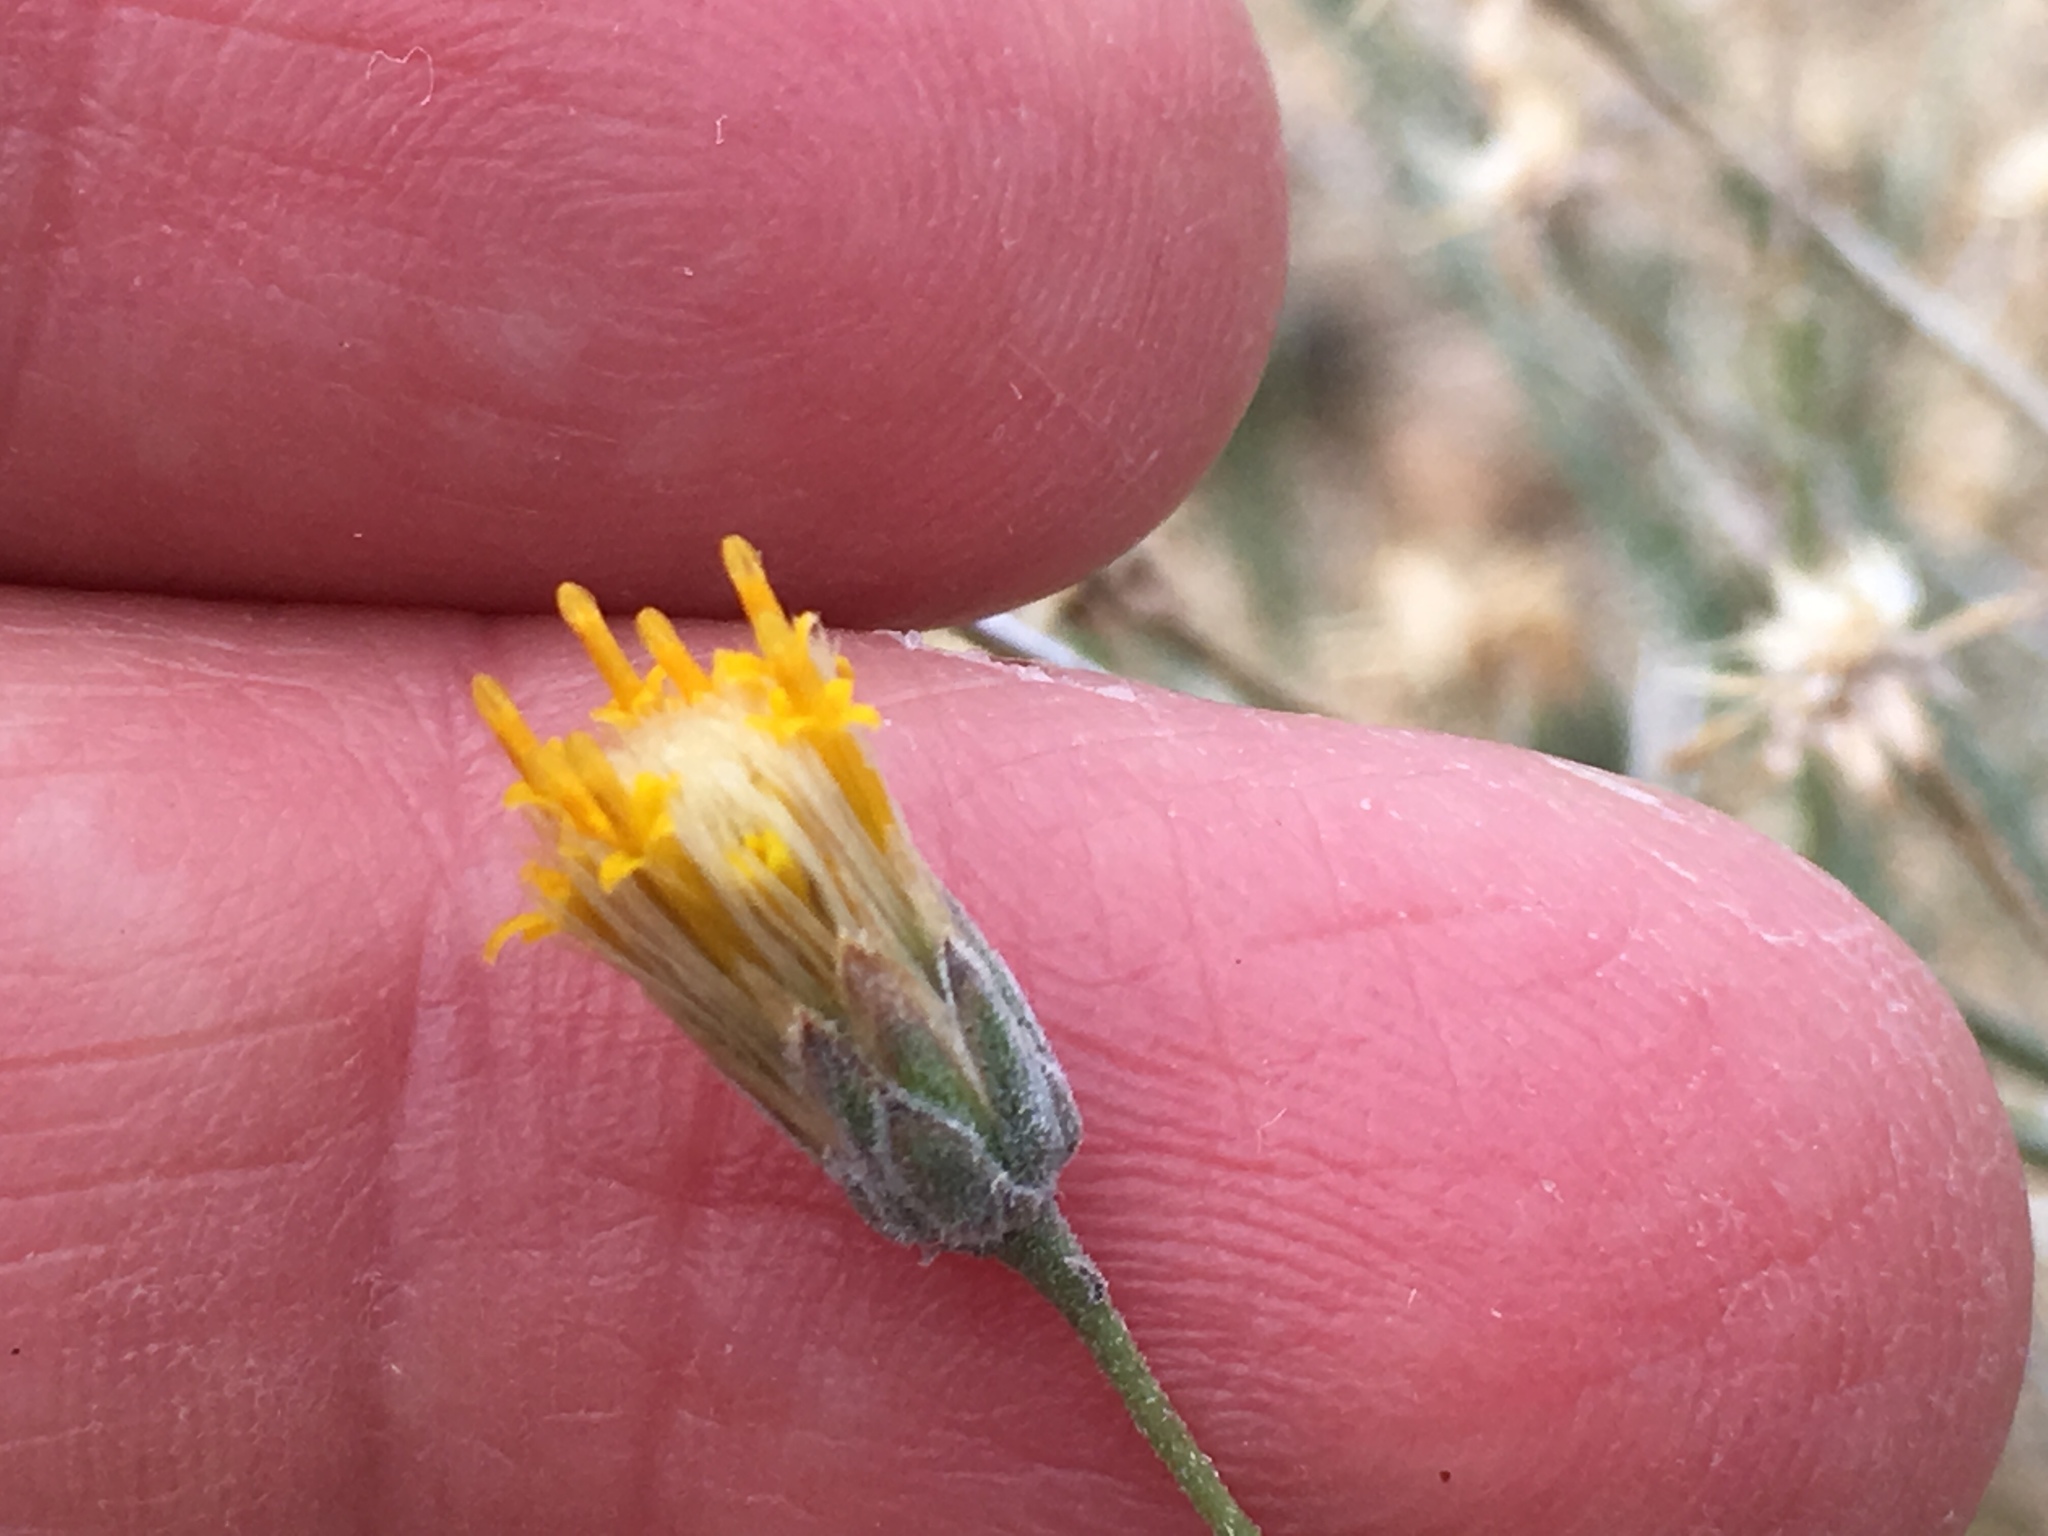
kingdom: Plantae
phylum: Tracheophyta
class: Magnoliopsida
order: Asterales
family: Asteraceae
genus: Bebbia
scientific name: Bebbia juncea
